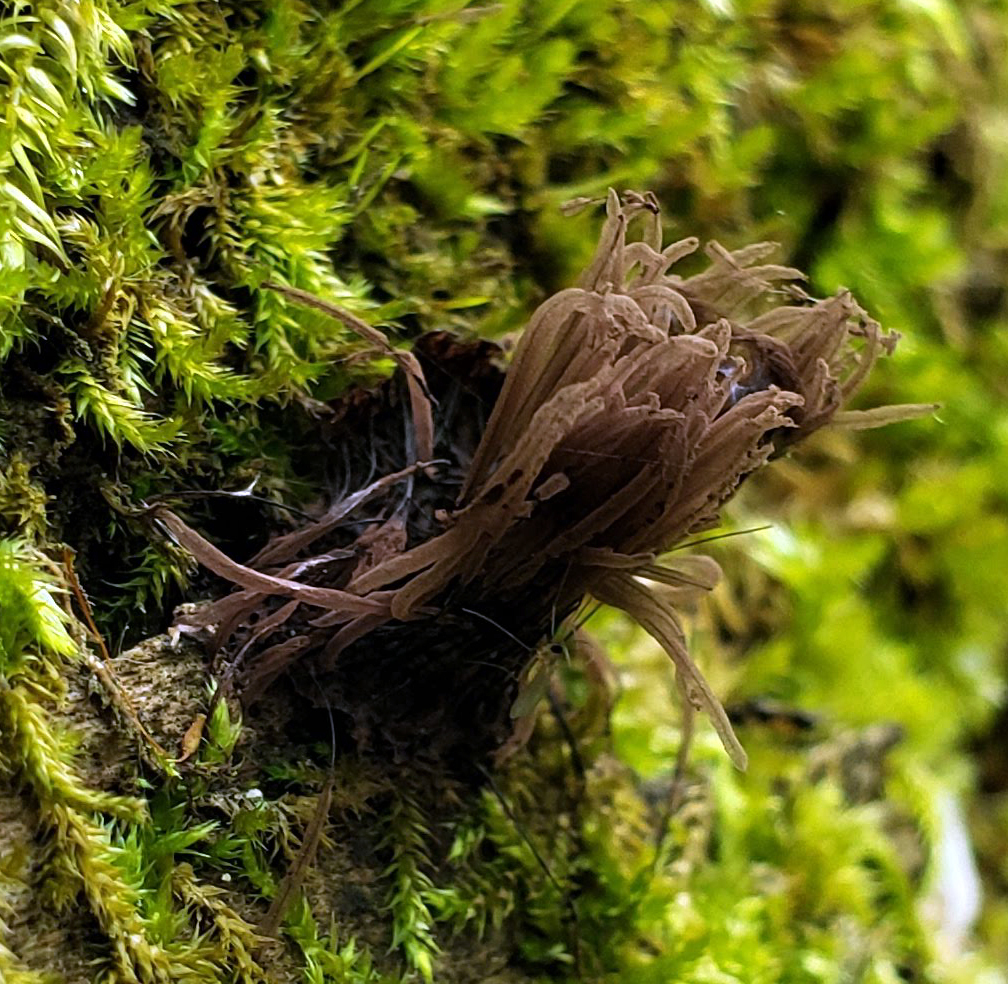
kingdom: Protozoa
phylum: Mycetozoa
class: Myxomycetes
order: Stemonitidales
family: Stemonitidaceae
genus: Stemonitis
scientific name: Stemonitis splendens
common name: Chocolate tube slime
